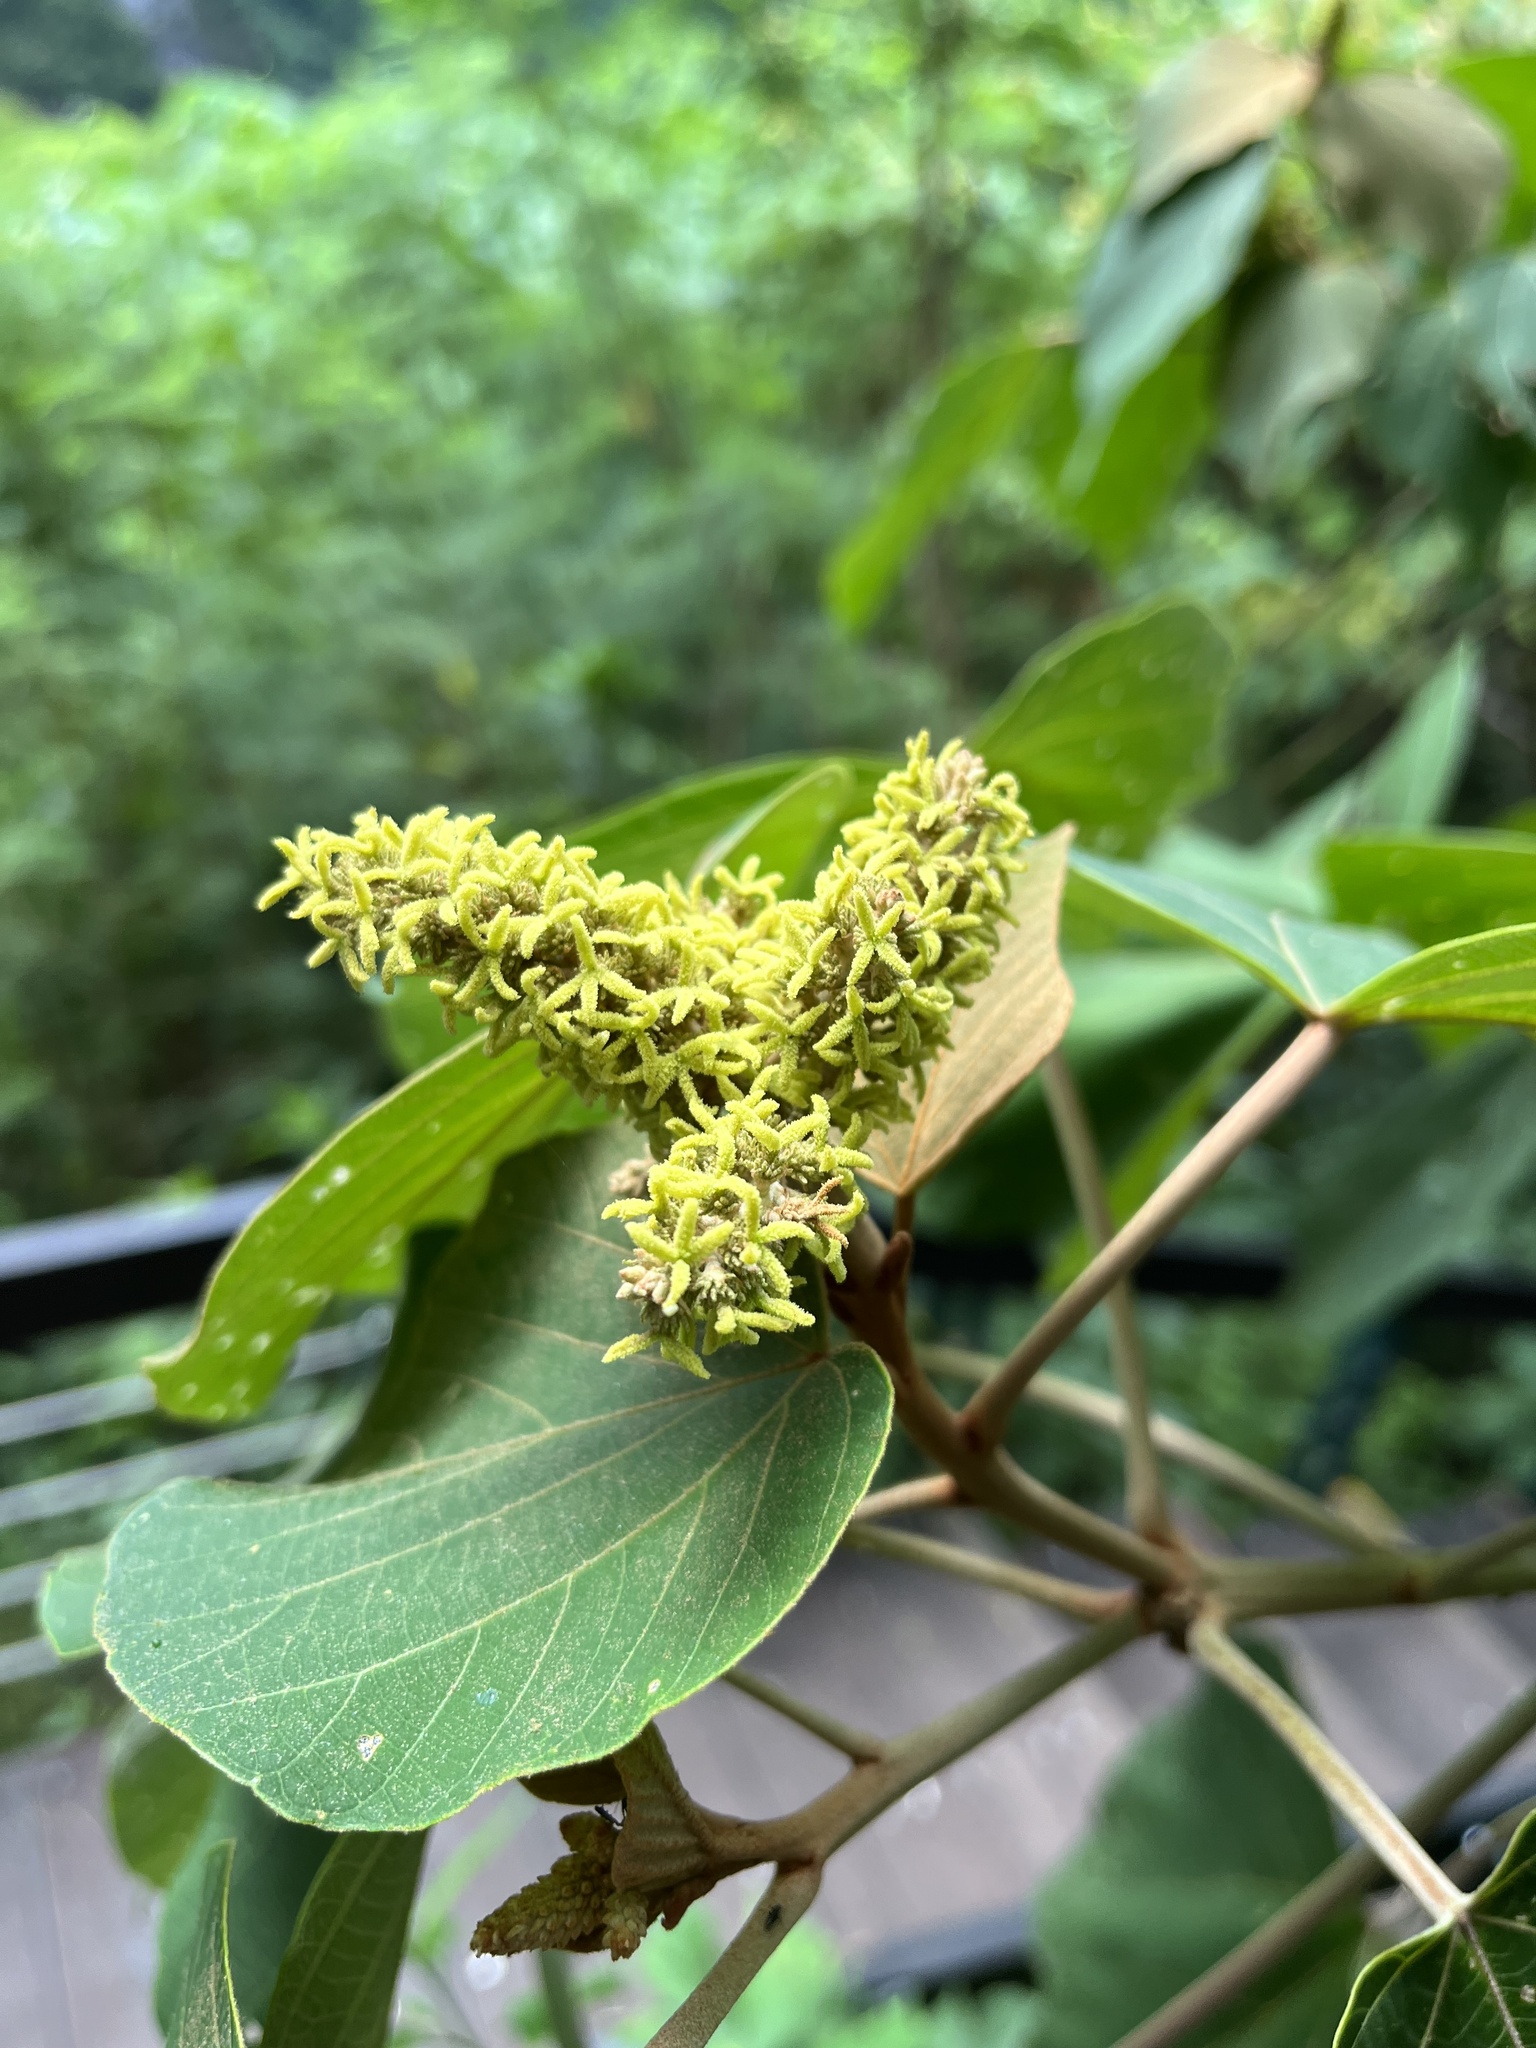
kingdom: Plantae
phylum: Tracheophyta
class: Magnoliopsida
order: Malpighiales
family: Euphorbiaceae
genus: Mallotus
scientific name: Mallotus japonicus
